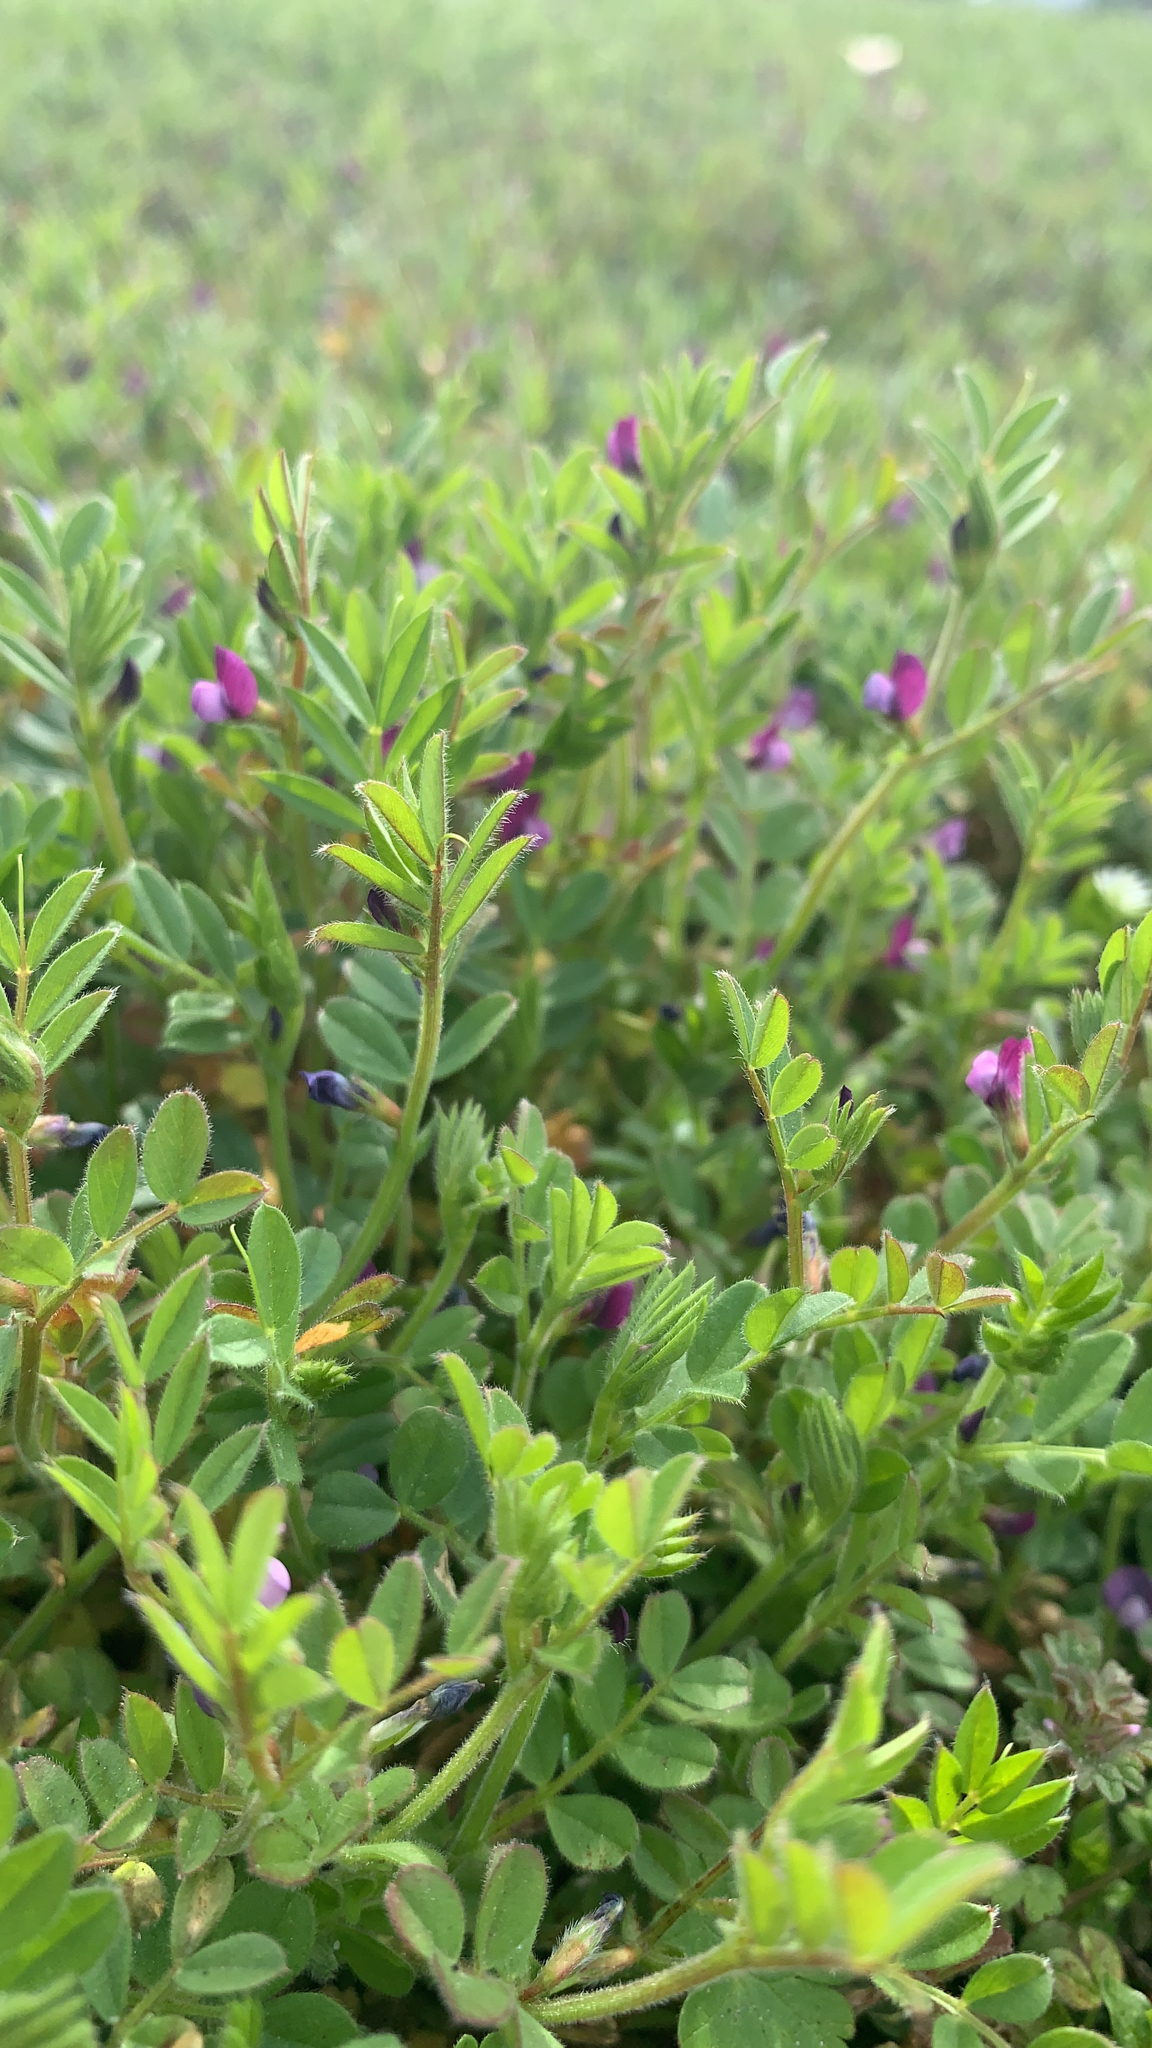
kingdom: Plantae
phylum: Tracheophyta
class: Magnoliopsida
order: Fabales
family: Fabaceae
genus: Vicia
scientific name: Vicia sativa
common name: Garden vetch
